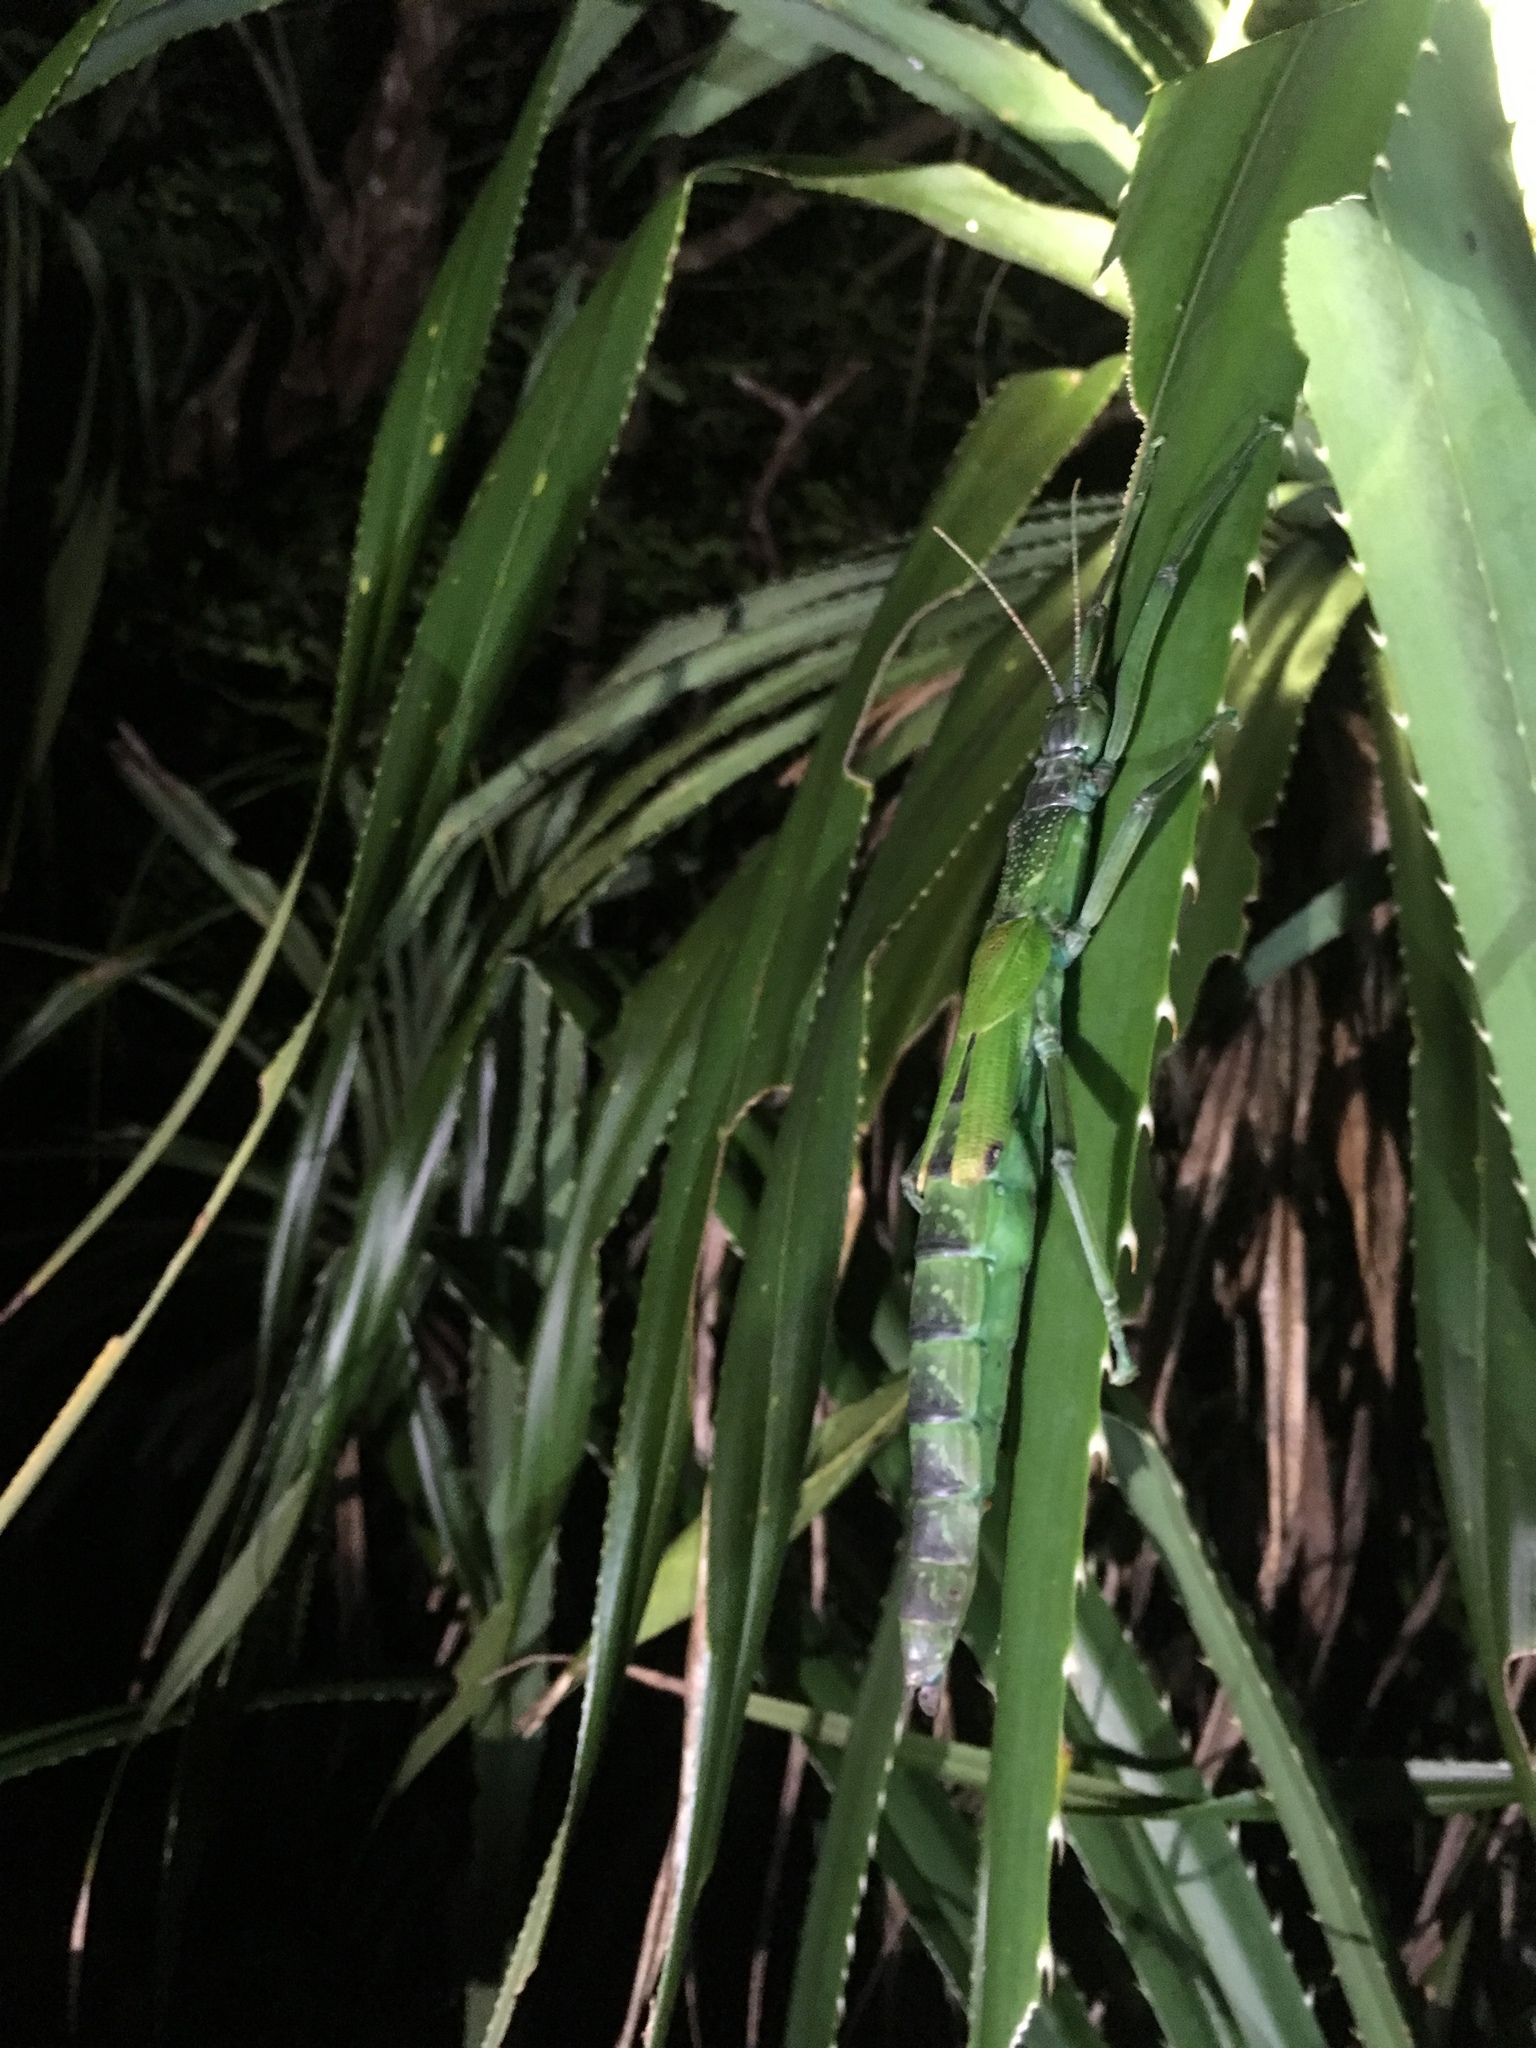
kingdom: Animalia
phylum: Arthropoda
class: Insecta
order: Phasmida
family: Phasmatidae
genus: Megacrania
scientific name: Megacrania tsudai
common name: Tsuda's giant stick-insect
